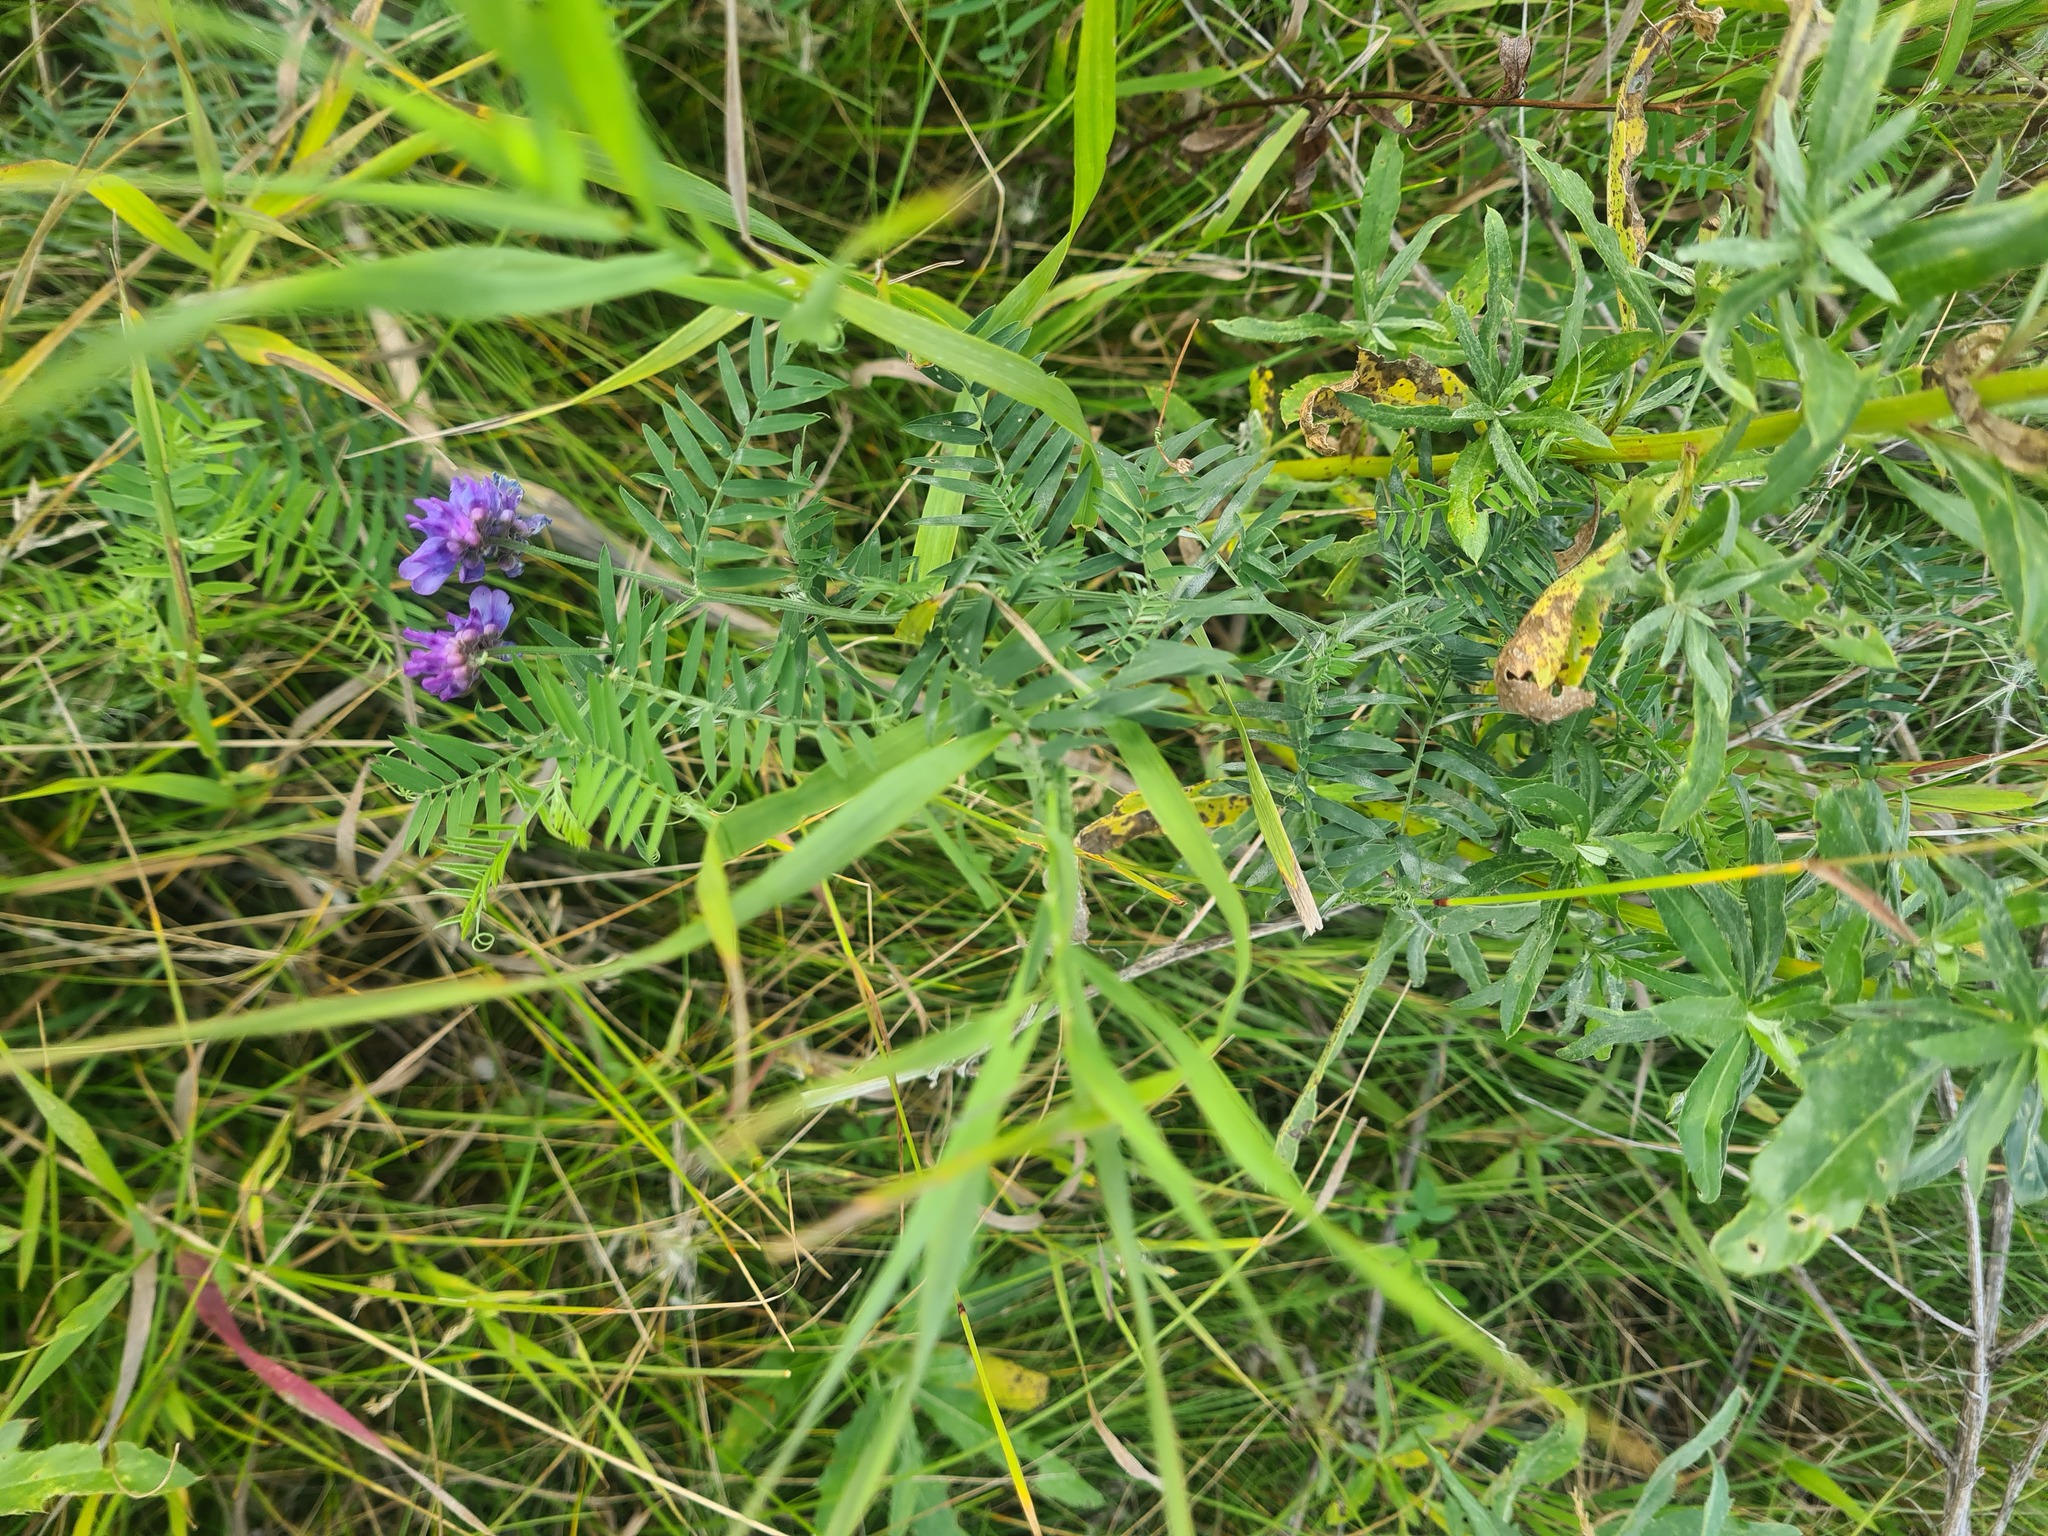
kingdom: Plantae
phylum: Tracheophyta
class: Magnoliopsida
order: Fabales
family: Fabaceae
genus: Vicia
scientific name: Vicia cracca
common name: Bird vetch
